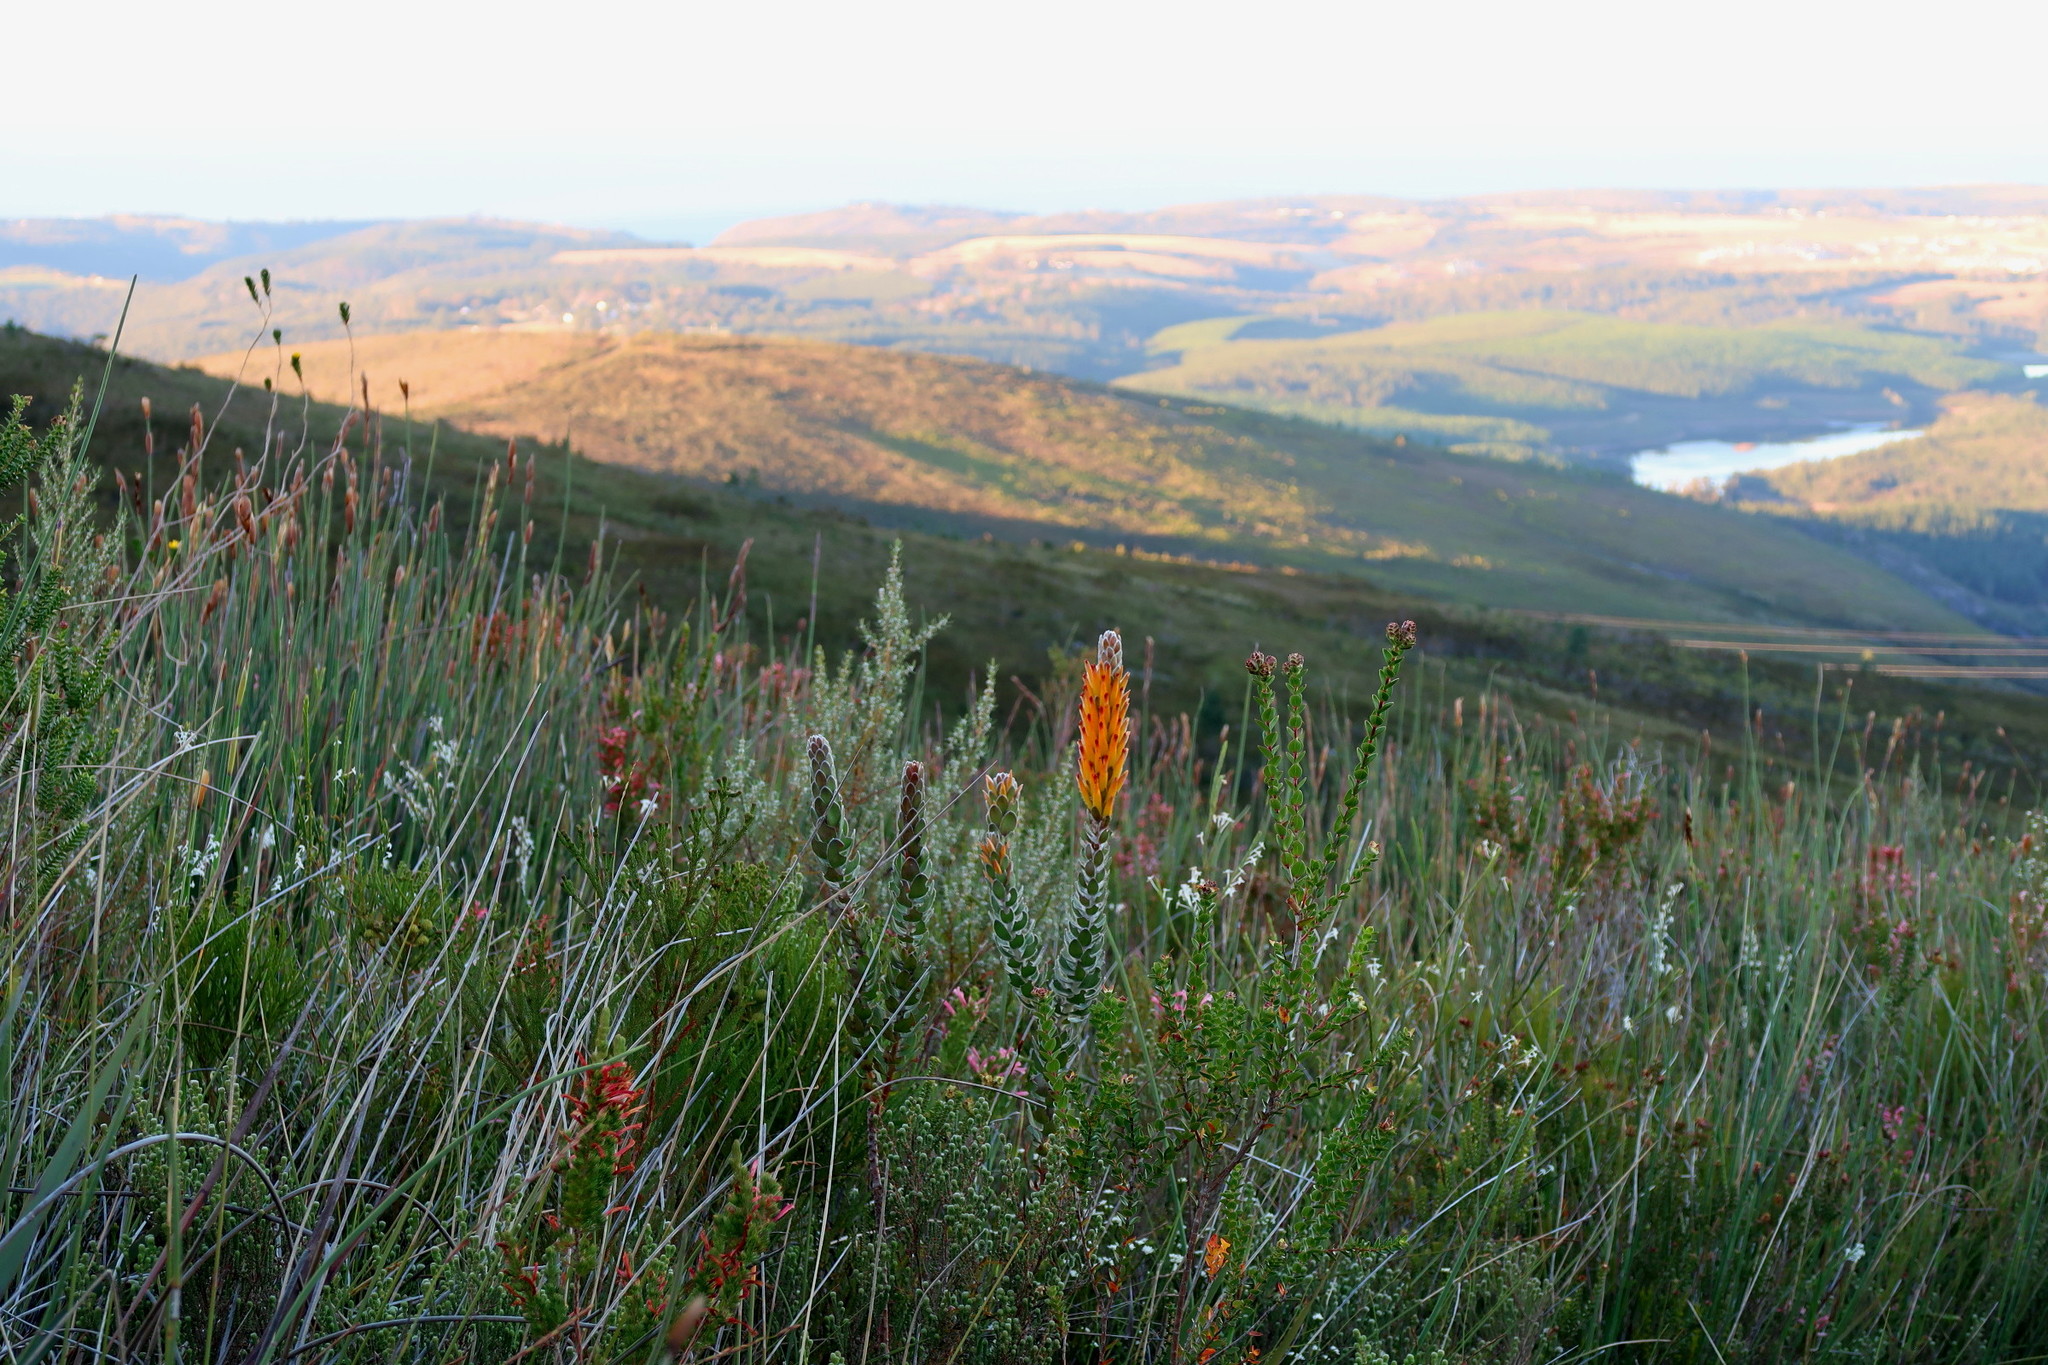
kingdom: Plantae
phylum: Tracheophyta
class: Magnoliopsida
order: Proteales
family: Proteaceae
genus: Mimetes
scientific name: Mimetes pauciflora
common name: Three-flowered pagoda
